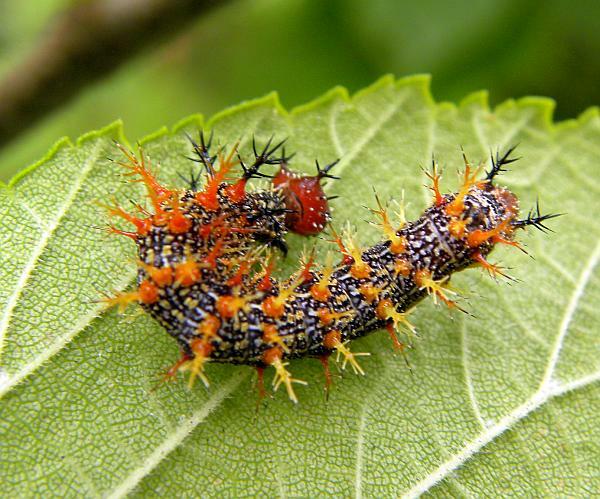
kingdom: Animalia
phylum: Arthropoda
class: Insecta
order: Lepidoptera
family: Nymphalidae
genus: Polygonia
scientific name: Polygonia interrogationis
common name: Question mark
